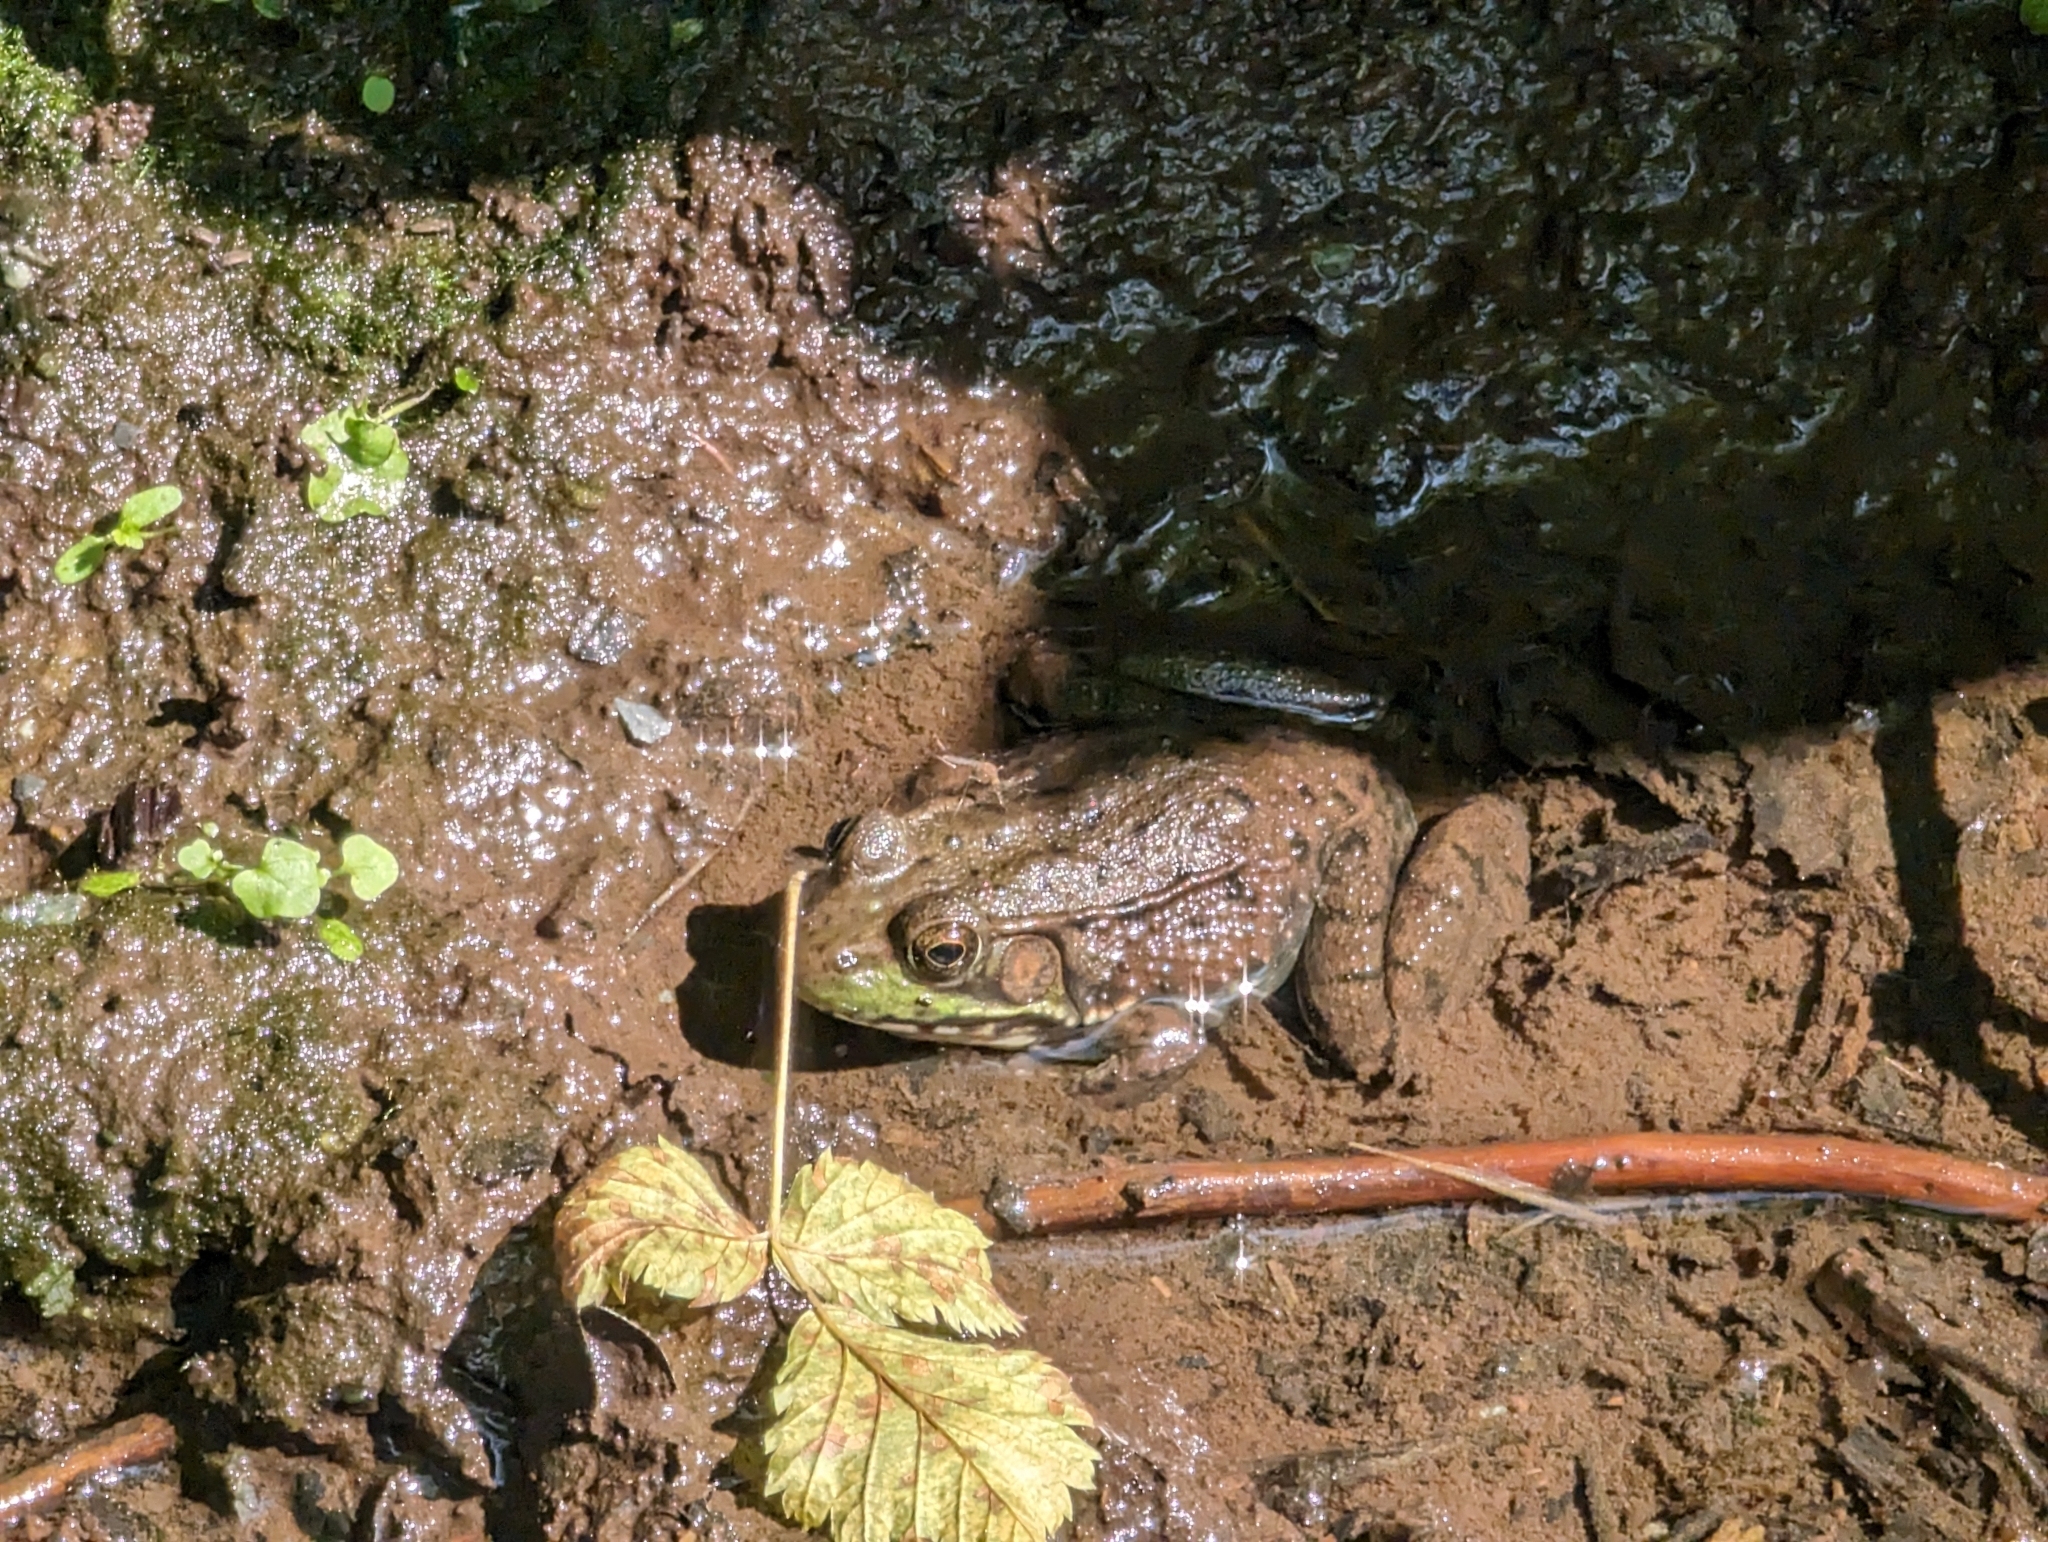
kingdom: Animalia
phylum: Chordata
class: Amphibia
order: Anura
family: Ranidae
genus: Lithobates
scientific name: Lithobates clamitans
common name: Green frog
